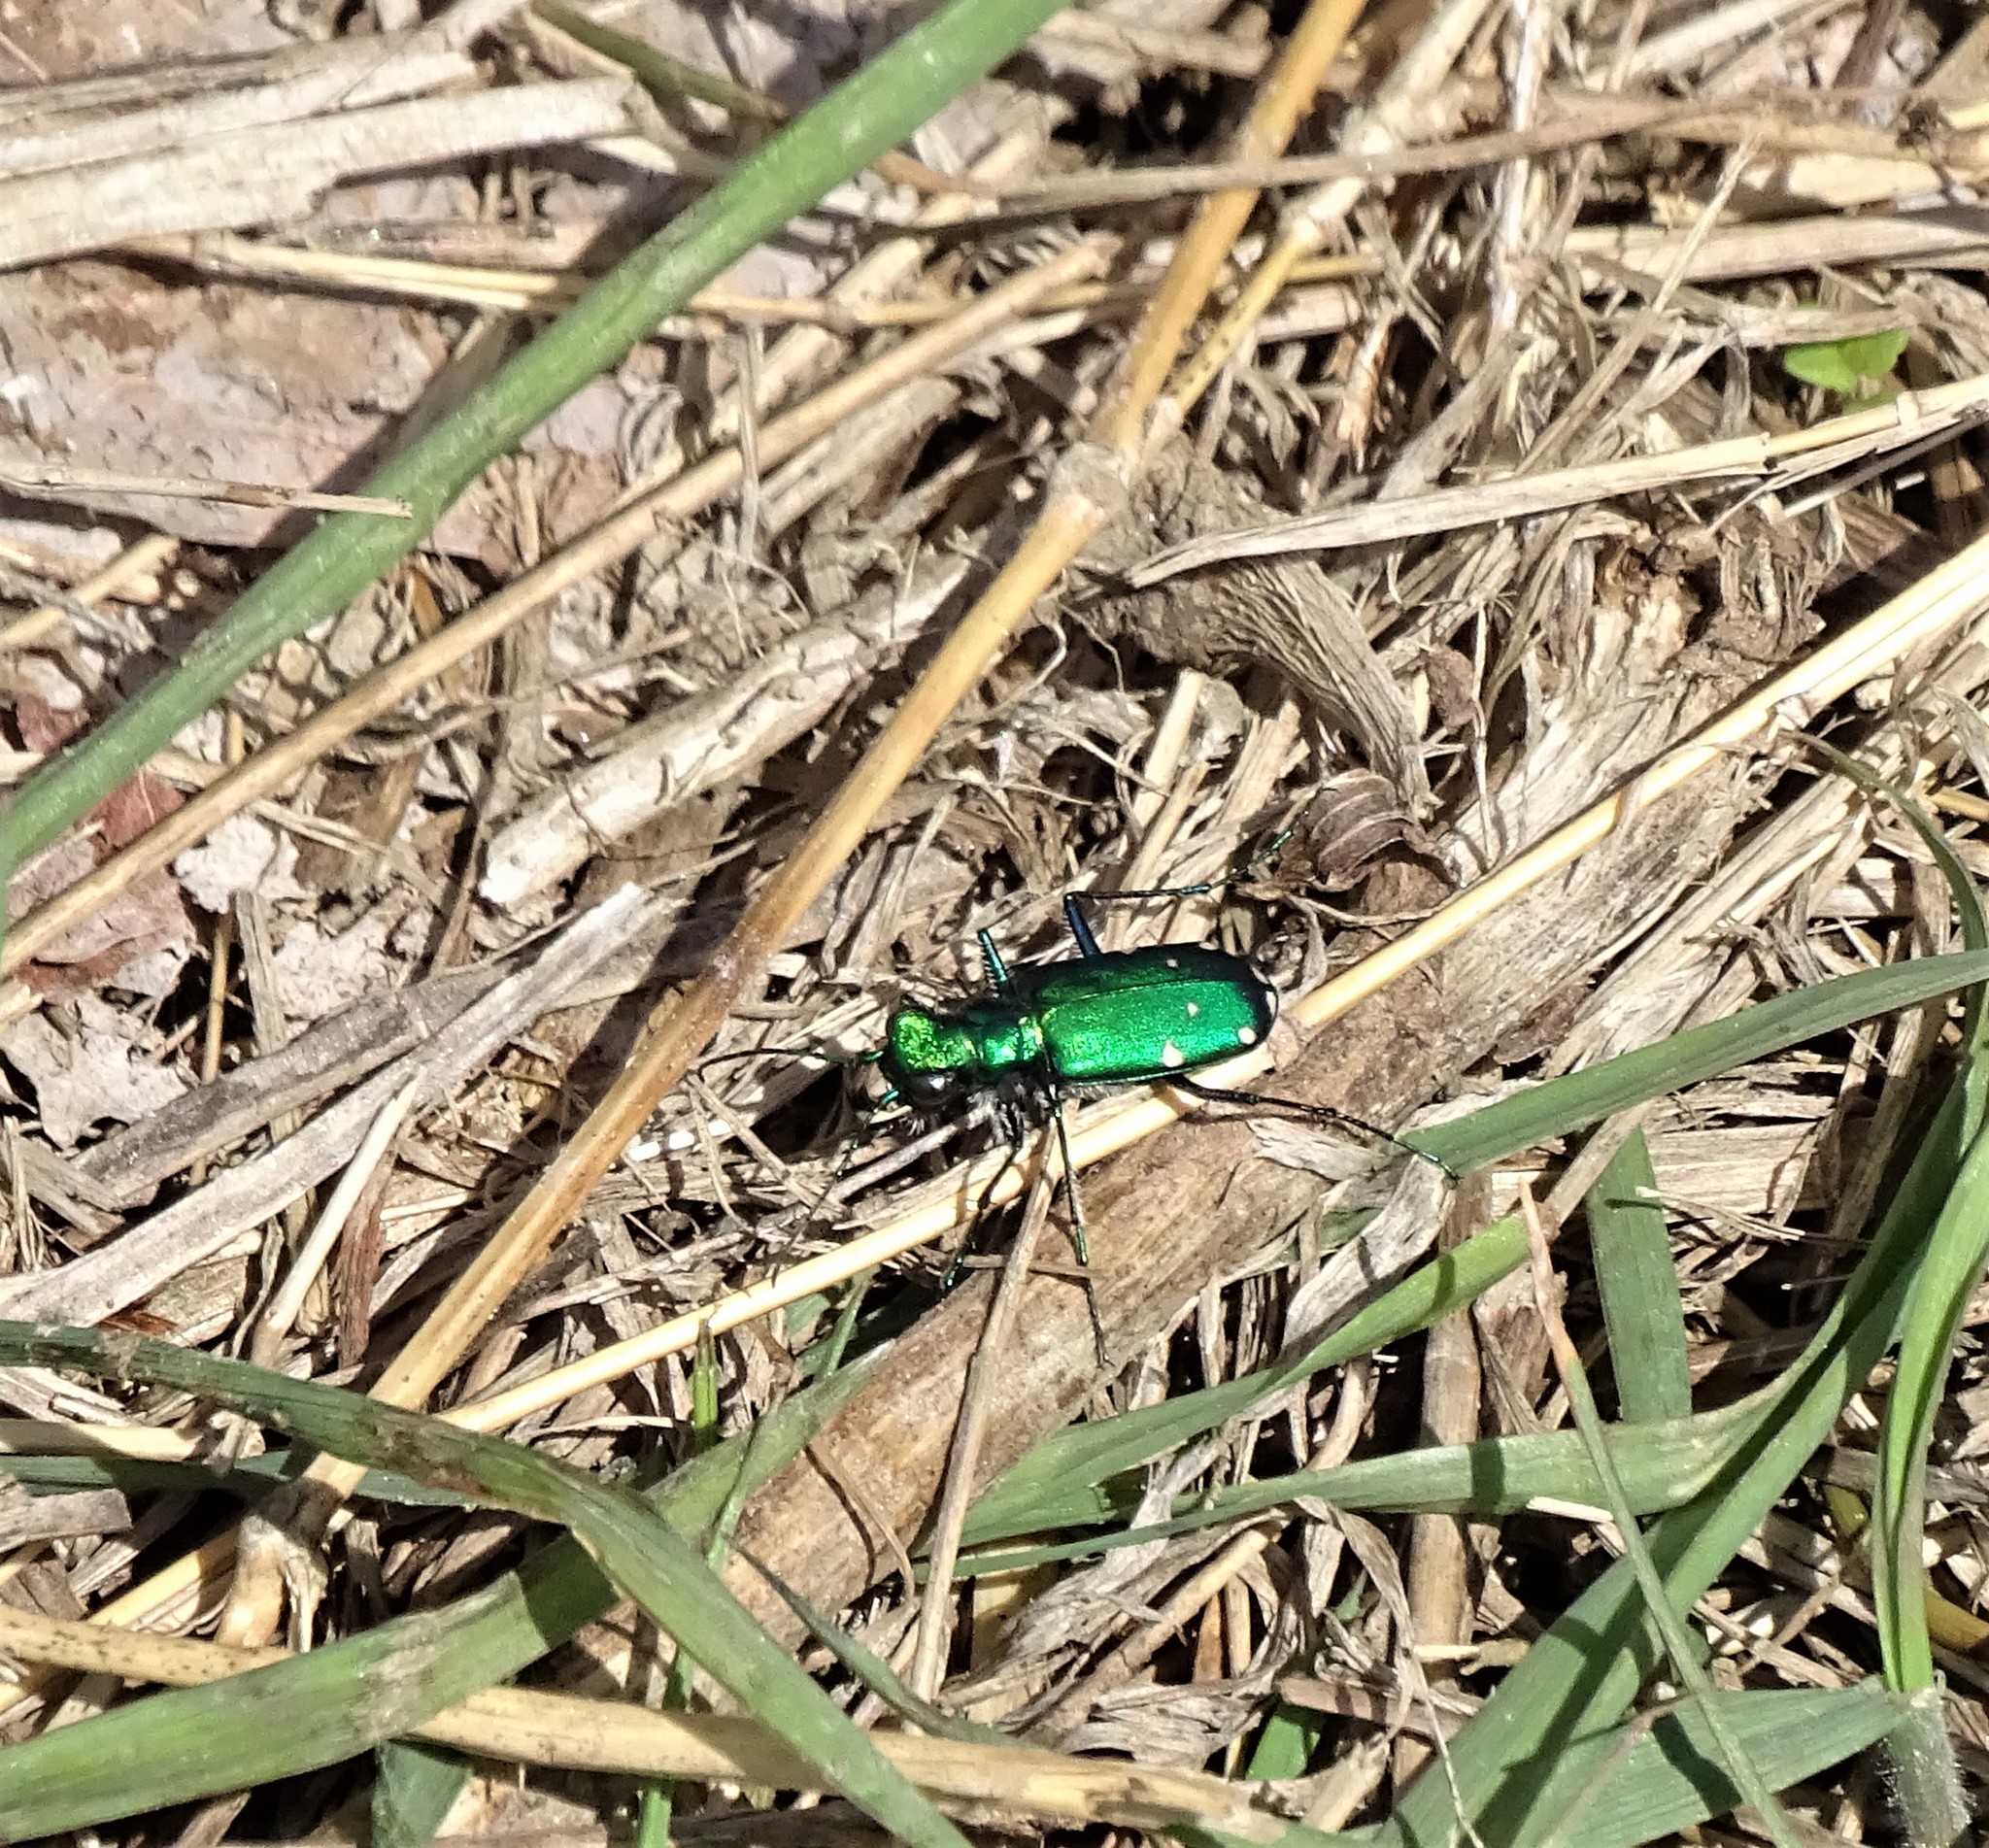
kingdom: Animalia
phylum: Arthropoda
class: Insecta
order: Coleoptera
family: Carabidae
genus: Cicindela
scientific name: Cicindela sexguttata
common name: Six-spotted tiger beetle
